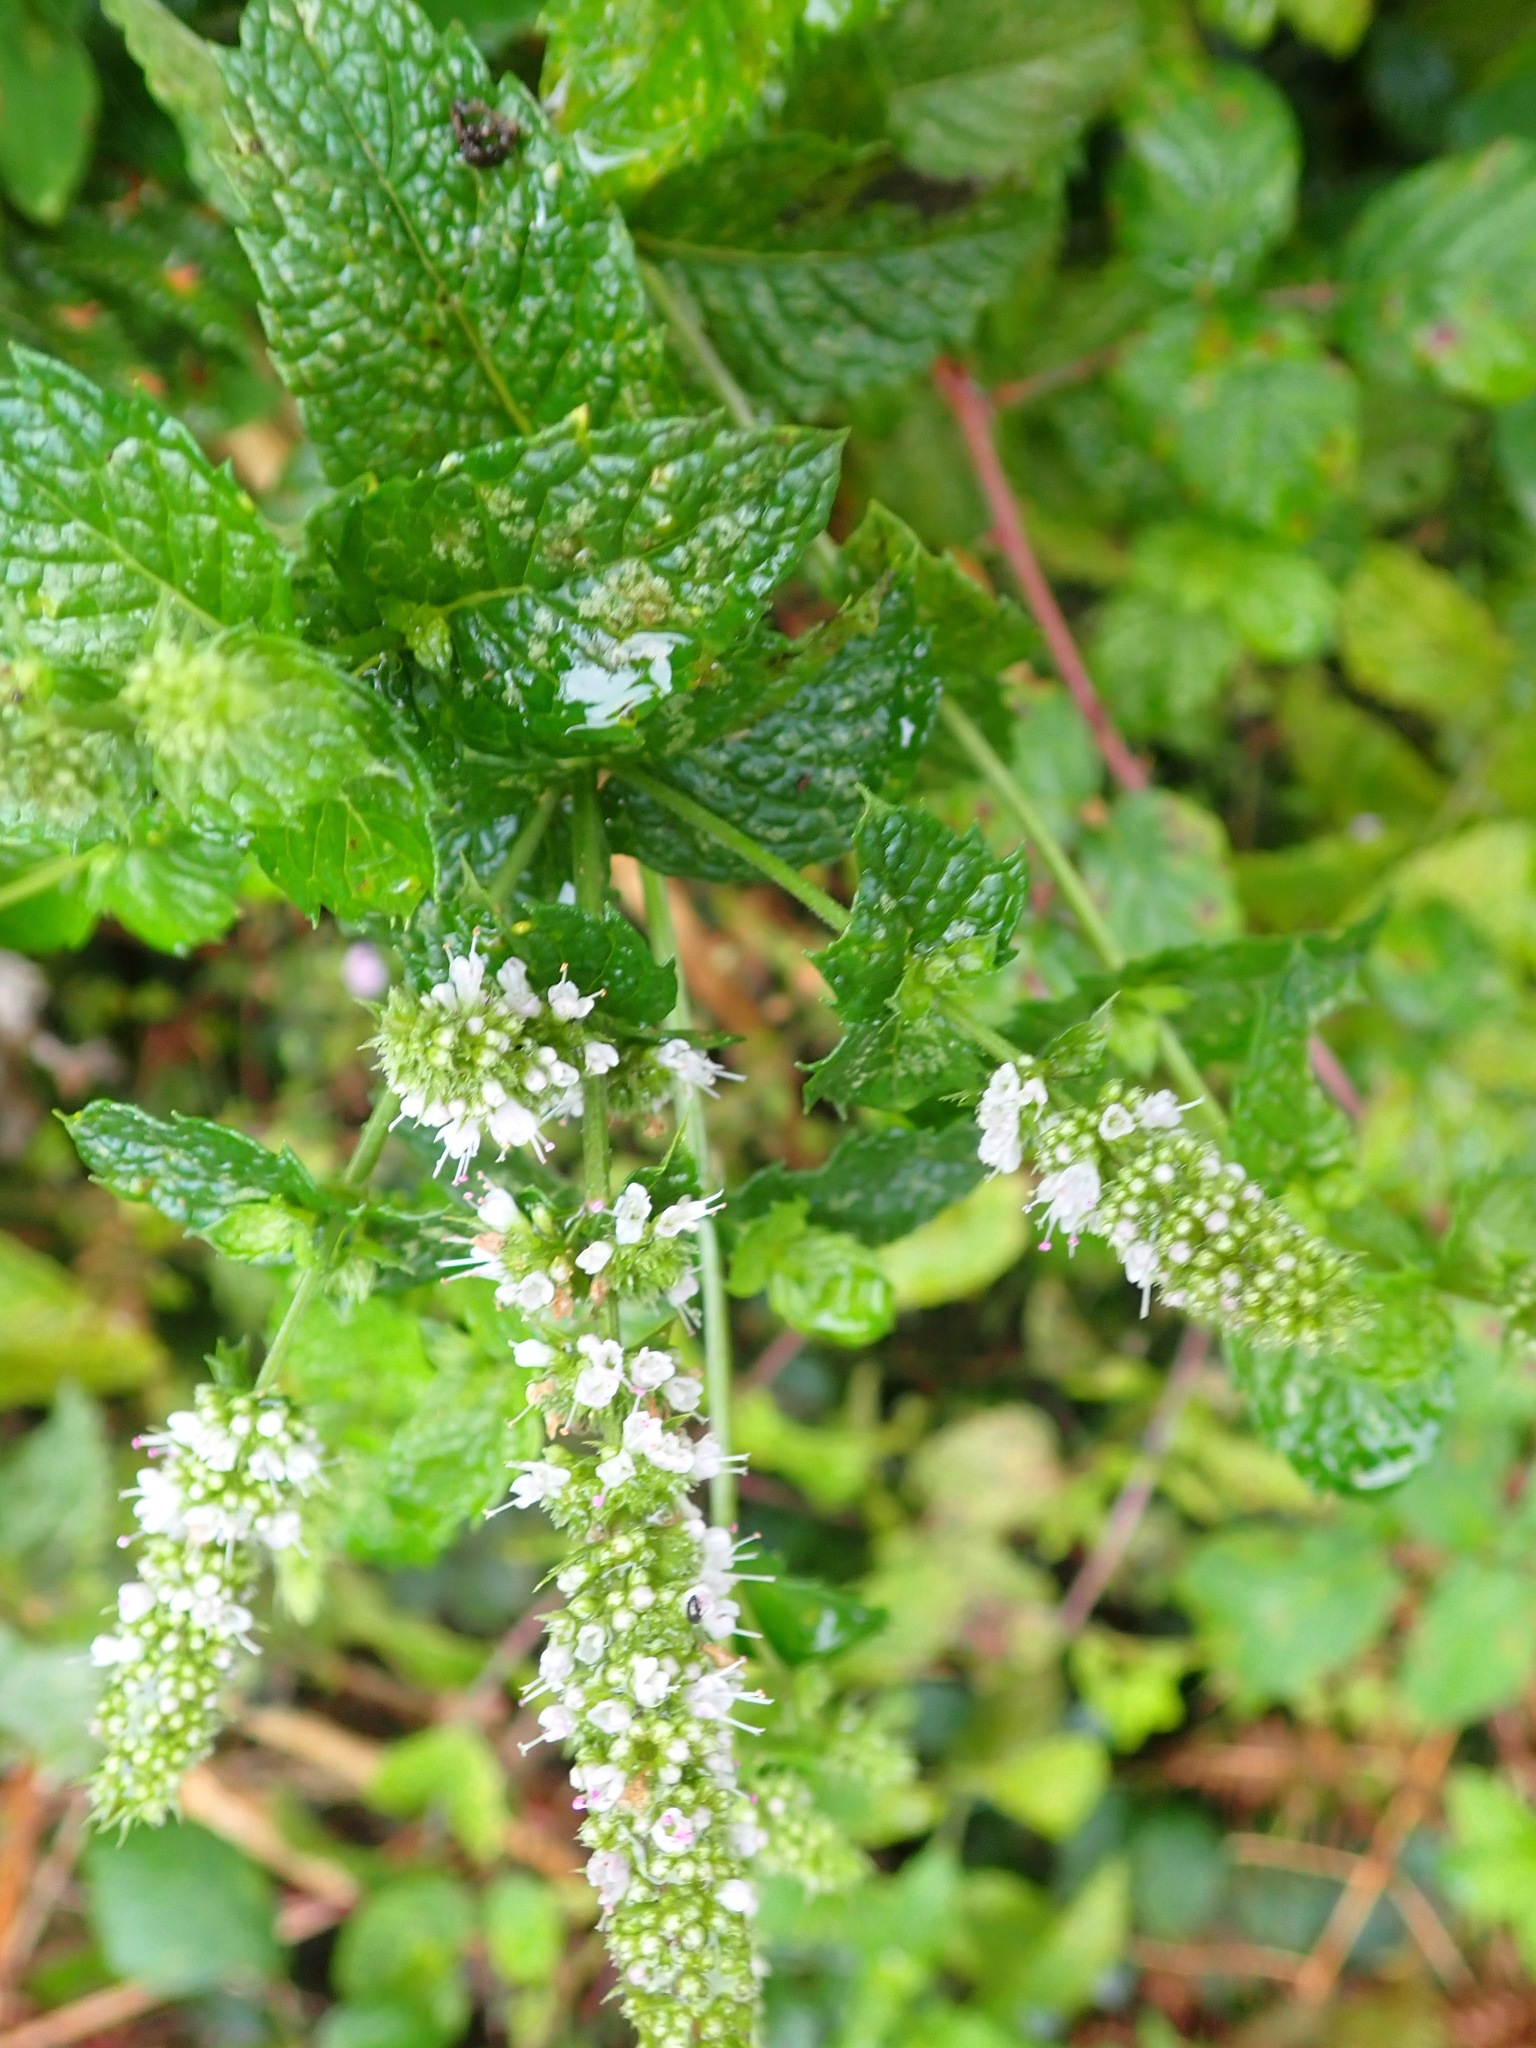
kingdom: Plantae
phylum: Tracheophyta
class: Magnoliopsida
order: Lamiales
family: Lamiaceae
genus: Mentha
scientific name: Mentha spicata
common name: Spearmint
